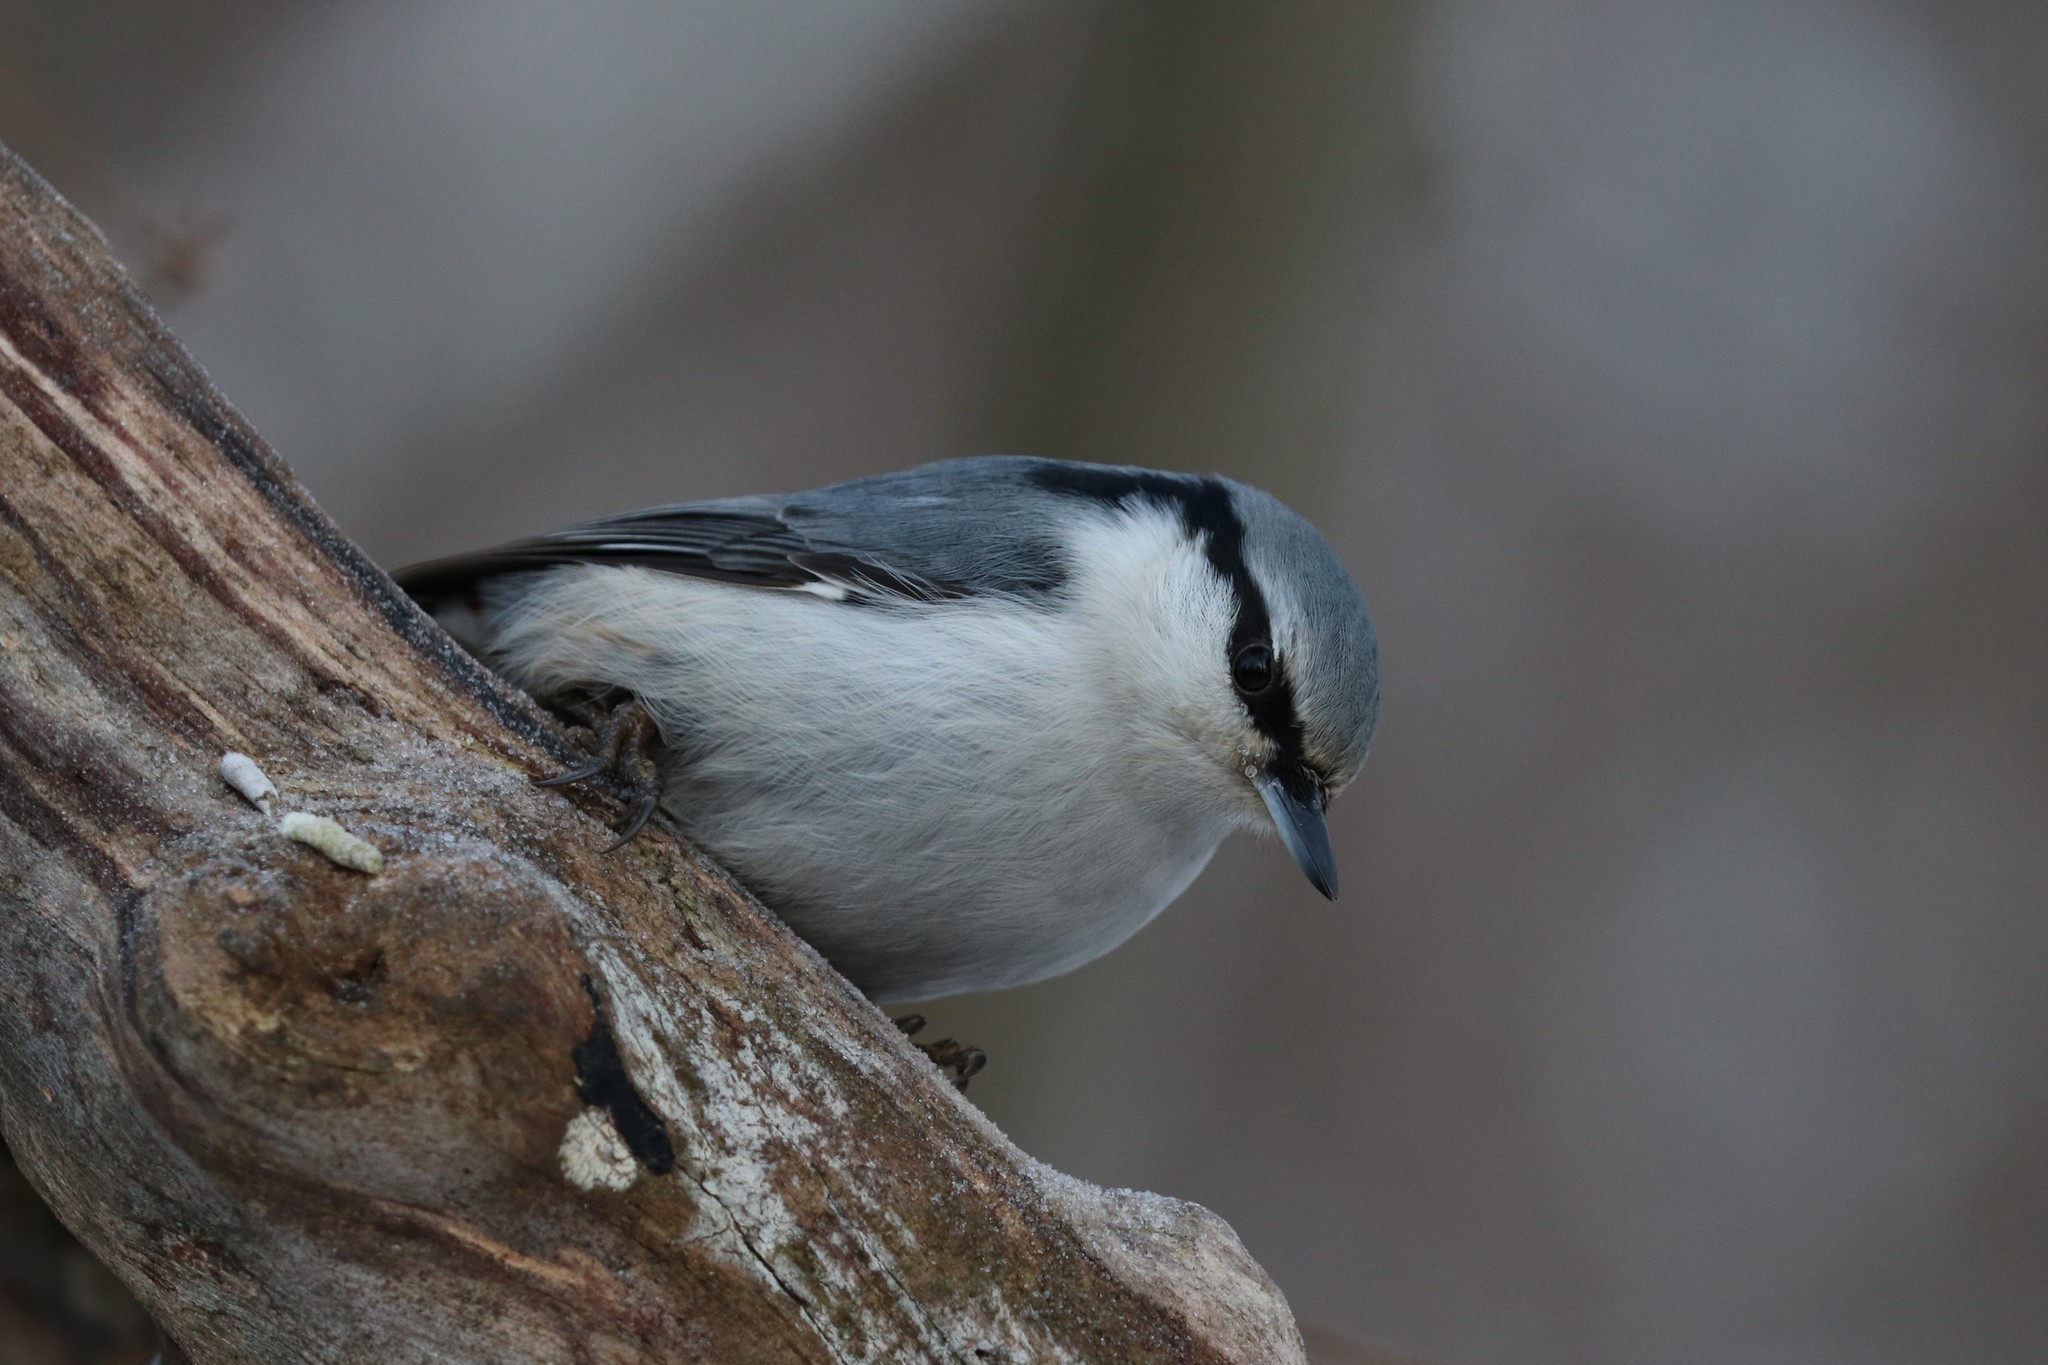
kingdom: Animalia
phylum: Chordata
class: Aves
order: Passeriformes
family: Sittidae
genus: Sitta
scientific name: Sitta europaea
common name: Eurasian nuthatch
